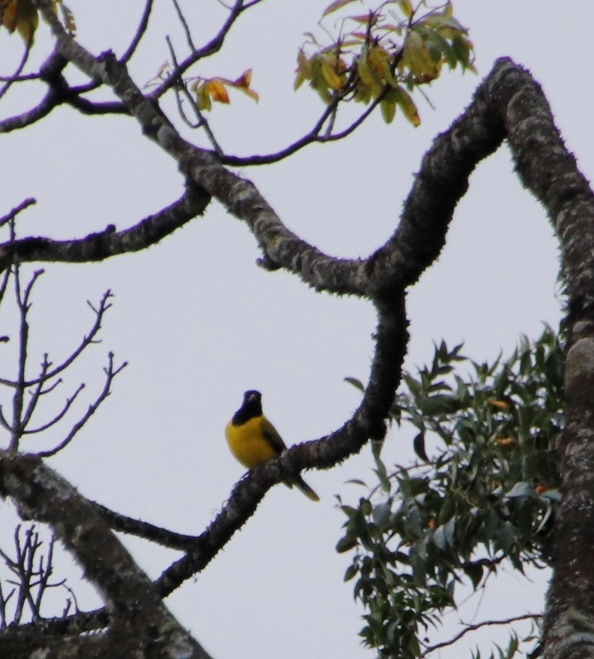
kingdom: Animalia
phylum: Chordata
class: Aves
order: Passeriformes
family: Oriolidae
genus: Oriolus
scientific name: Oriolus larvatus
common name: Black-headed oriole
